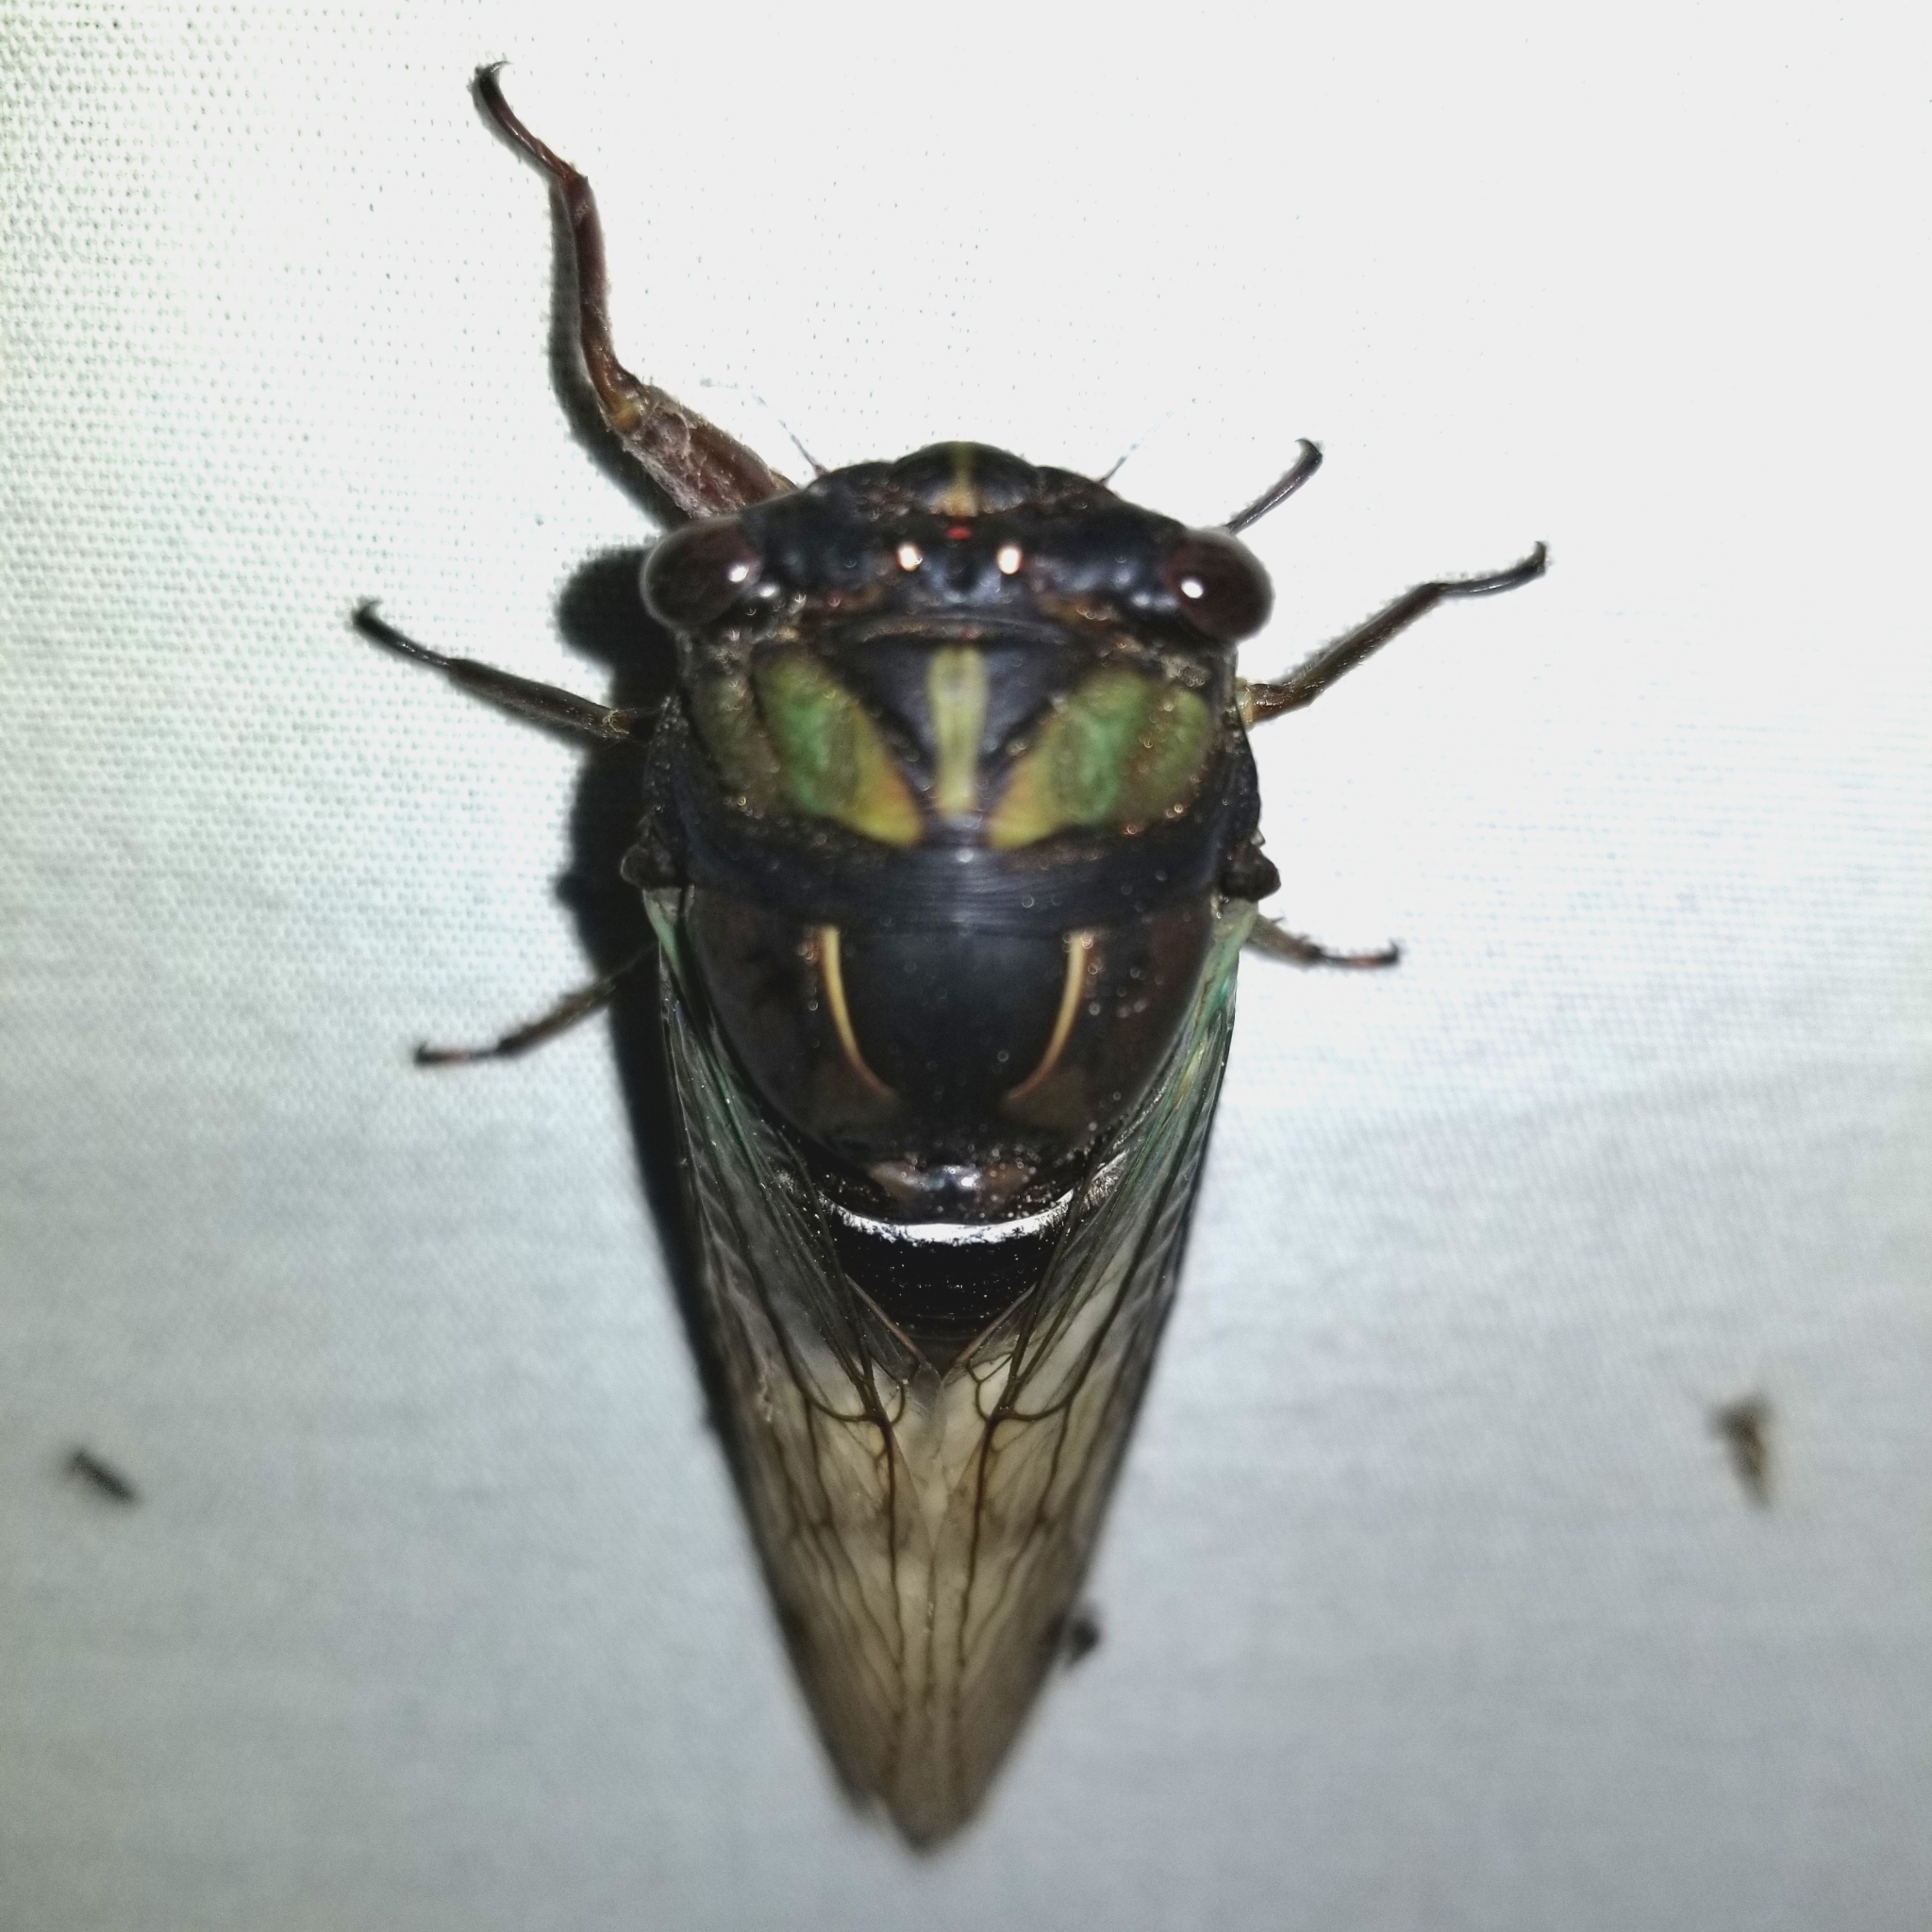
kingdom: Animalia
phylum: Arthropoda
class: Insecta
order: Hemiptera
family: Cicadidae
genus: Neotibicen
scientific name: Neotibicen lyricen
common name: Lyric cicada
